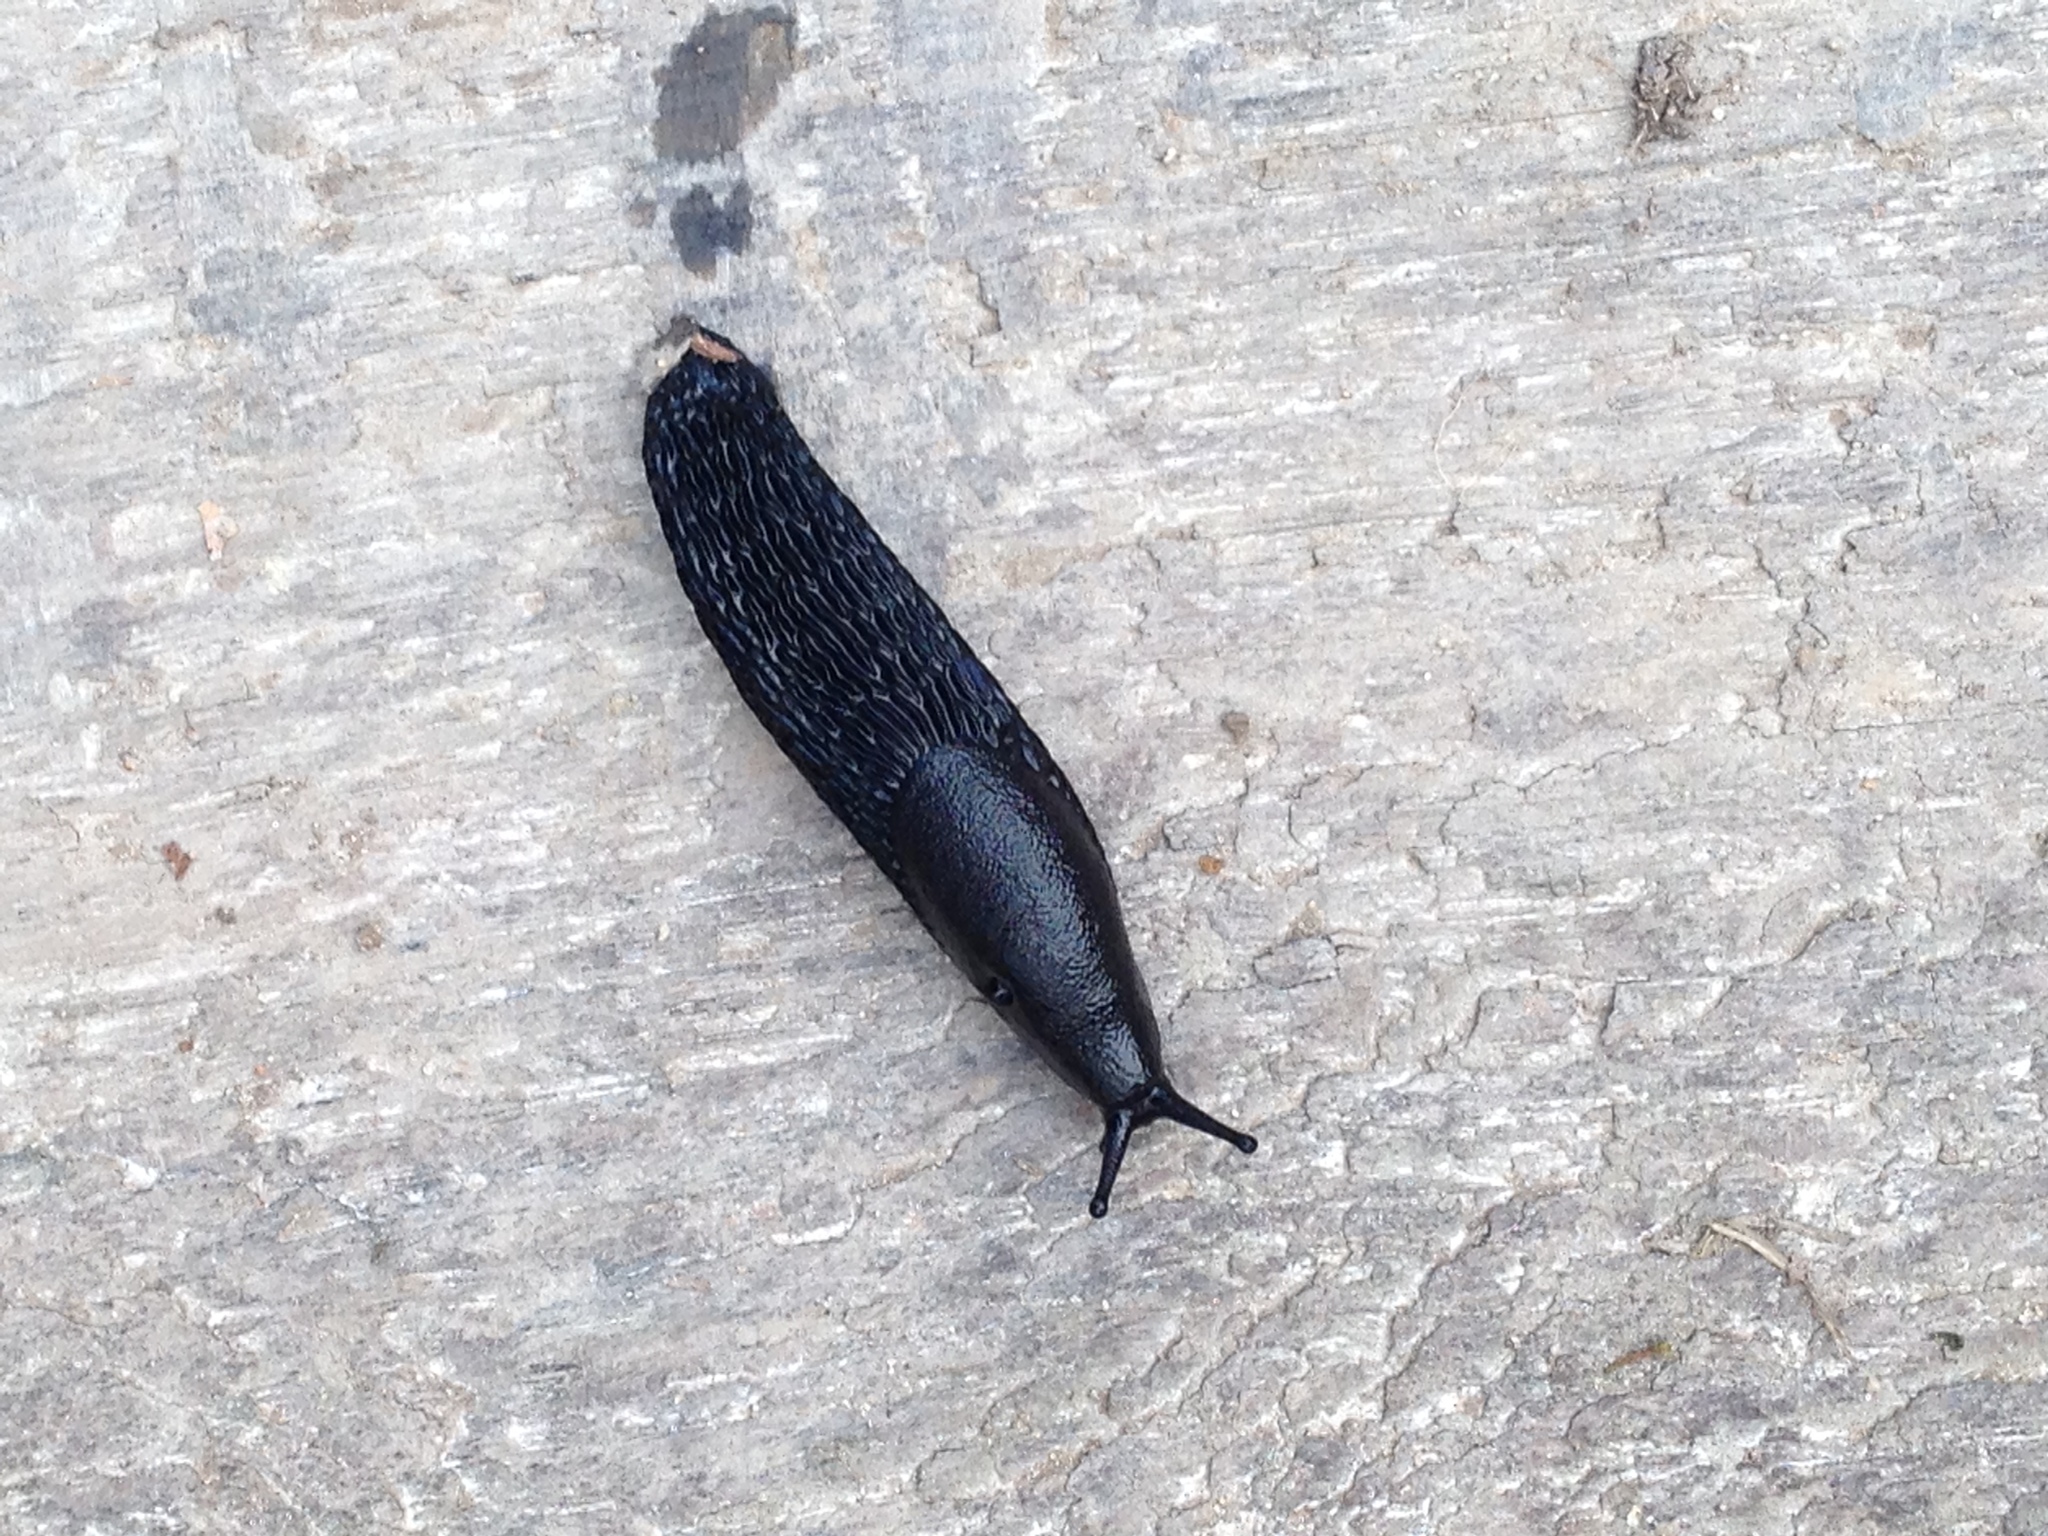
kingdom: Animalia
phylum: Mollusca
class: Gastropoda
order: Stylommatophora
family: Arionidae
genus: Arion
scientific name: Arion ater
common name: Black arion
